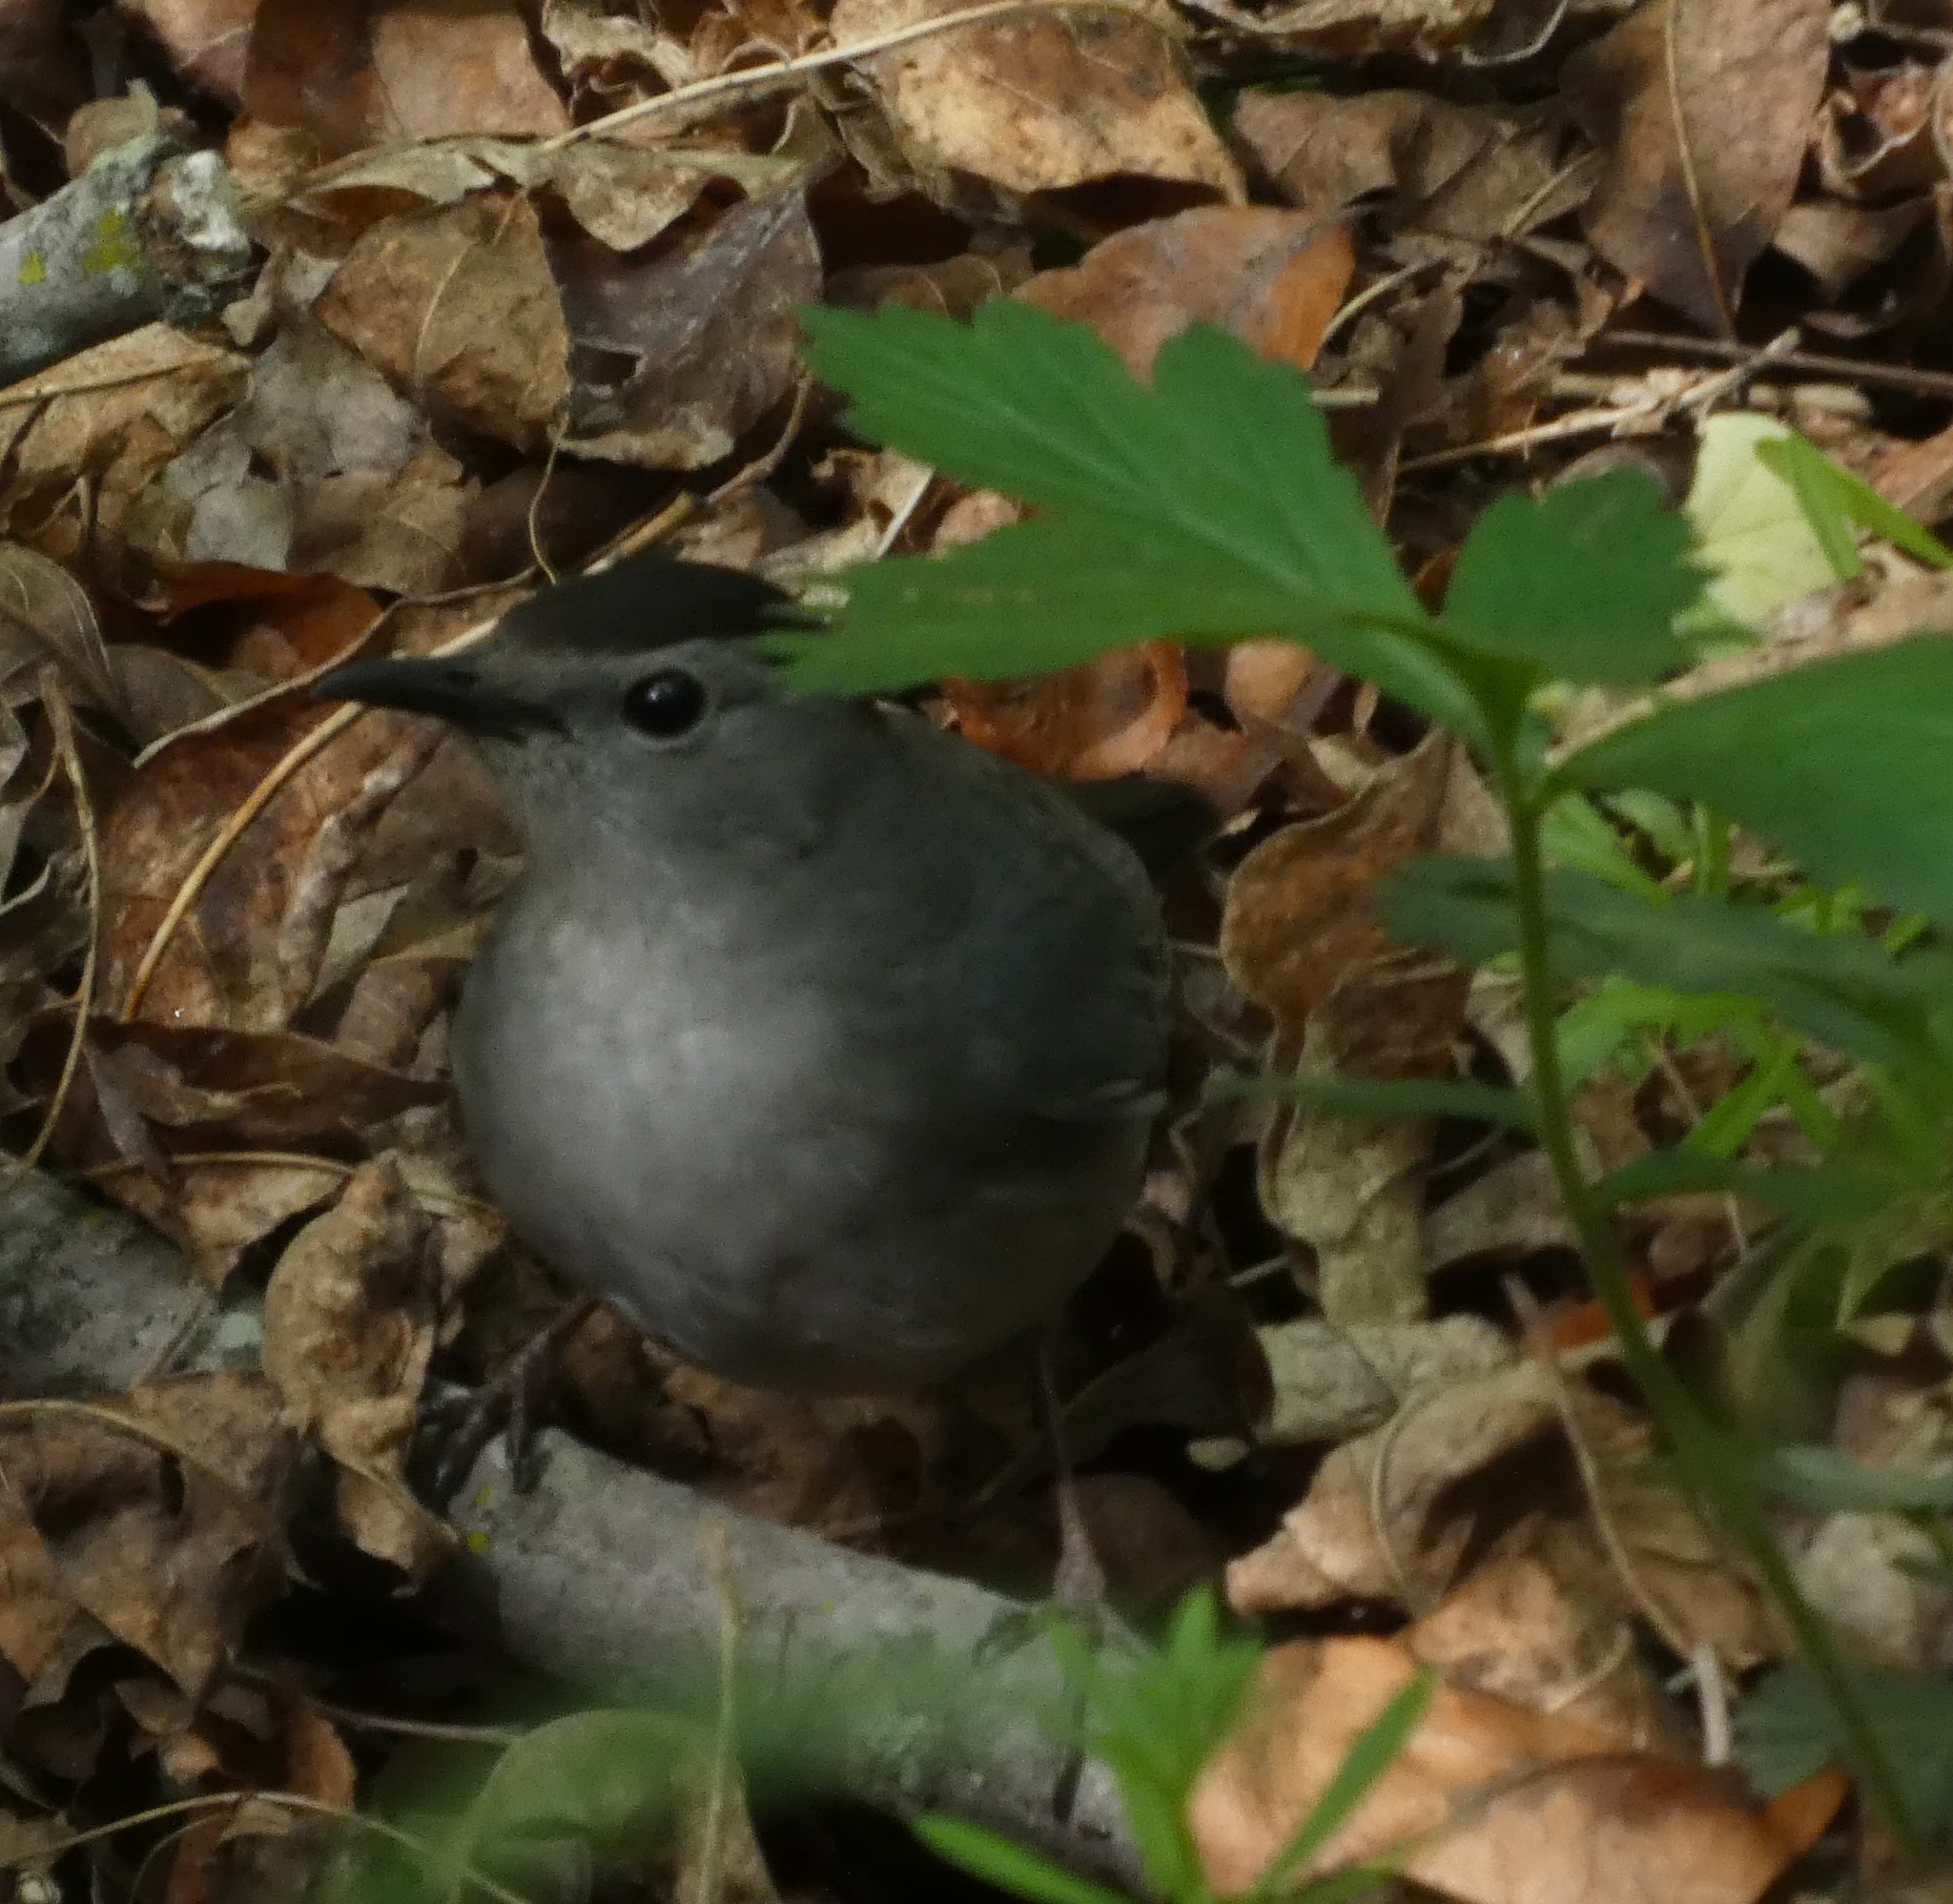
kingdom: Animalia
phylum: Chordata
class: Aves
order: Passeriformes
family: Mimidae
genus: Dumetella
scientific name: Dumetella carolinensis
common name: Gray catbird
